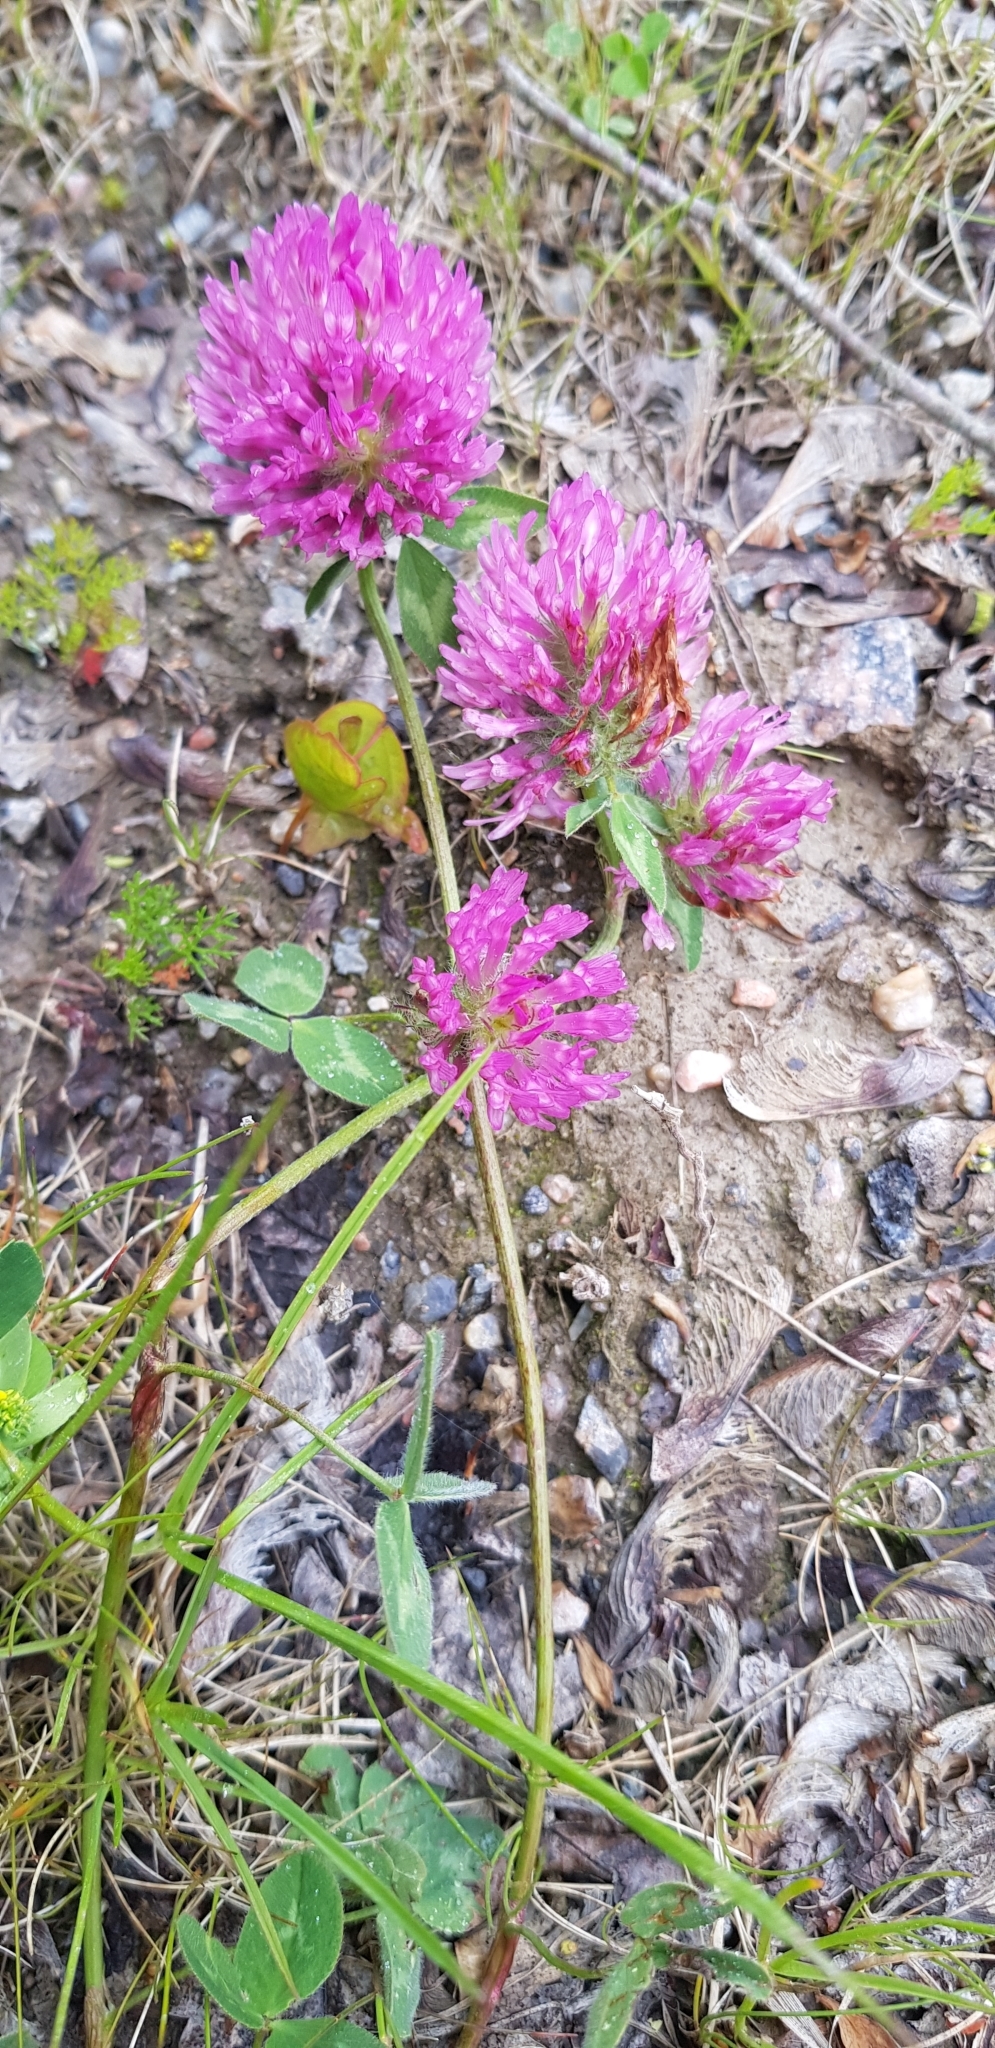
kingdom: Plantae
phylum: Tracheophyta
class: Magnoliopsida
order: Fabales
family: Fabaceae
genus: Trifolium
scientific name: Trifolium pratense
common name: Red clover
